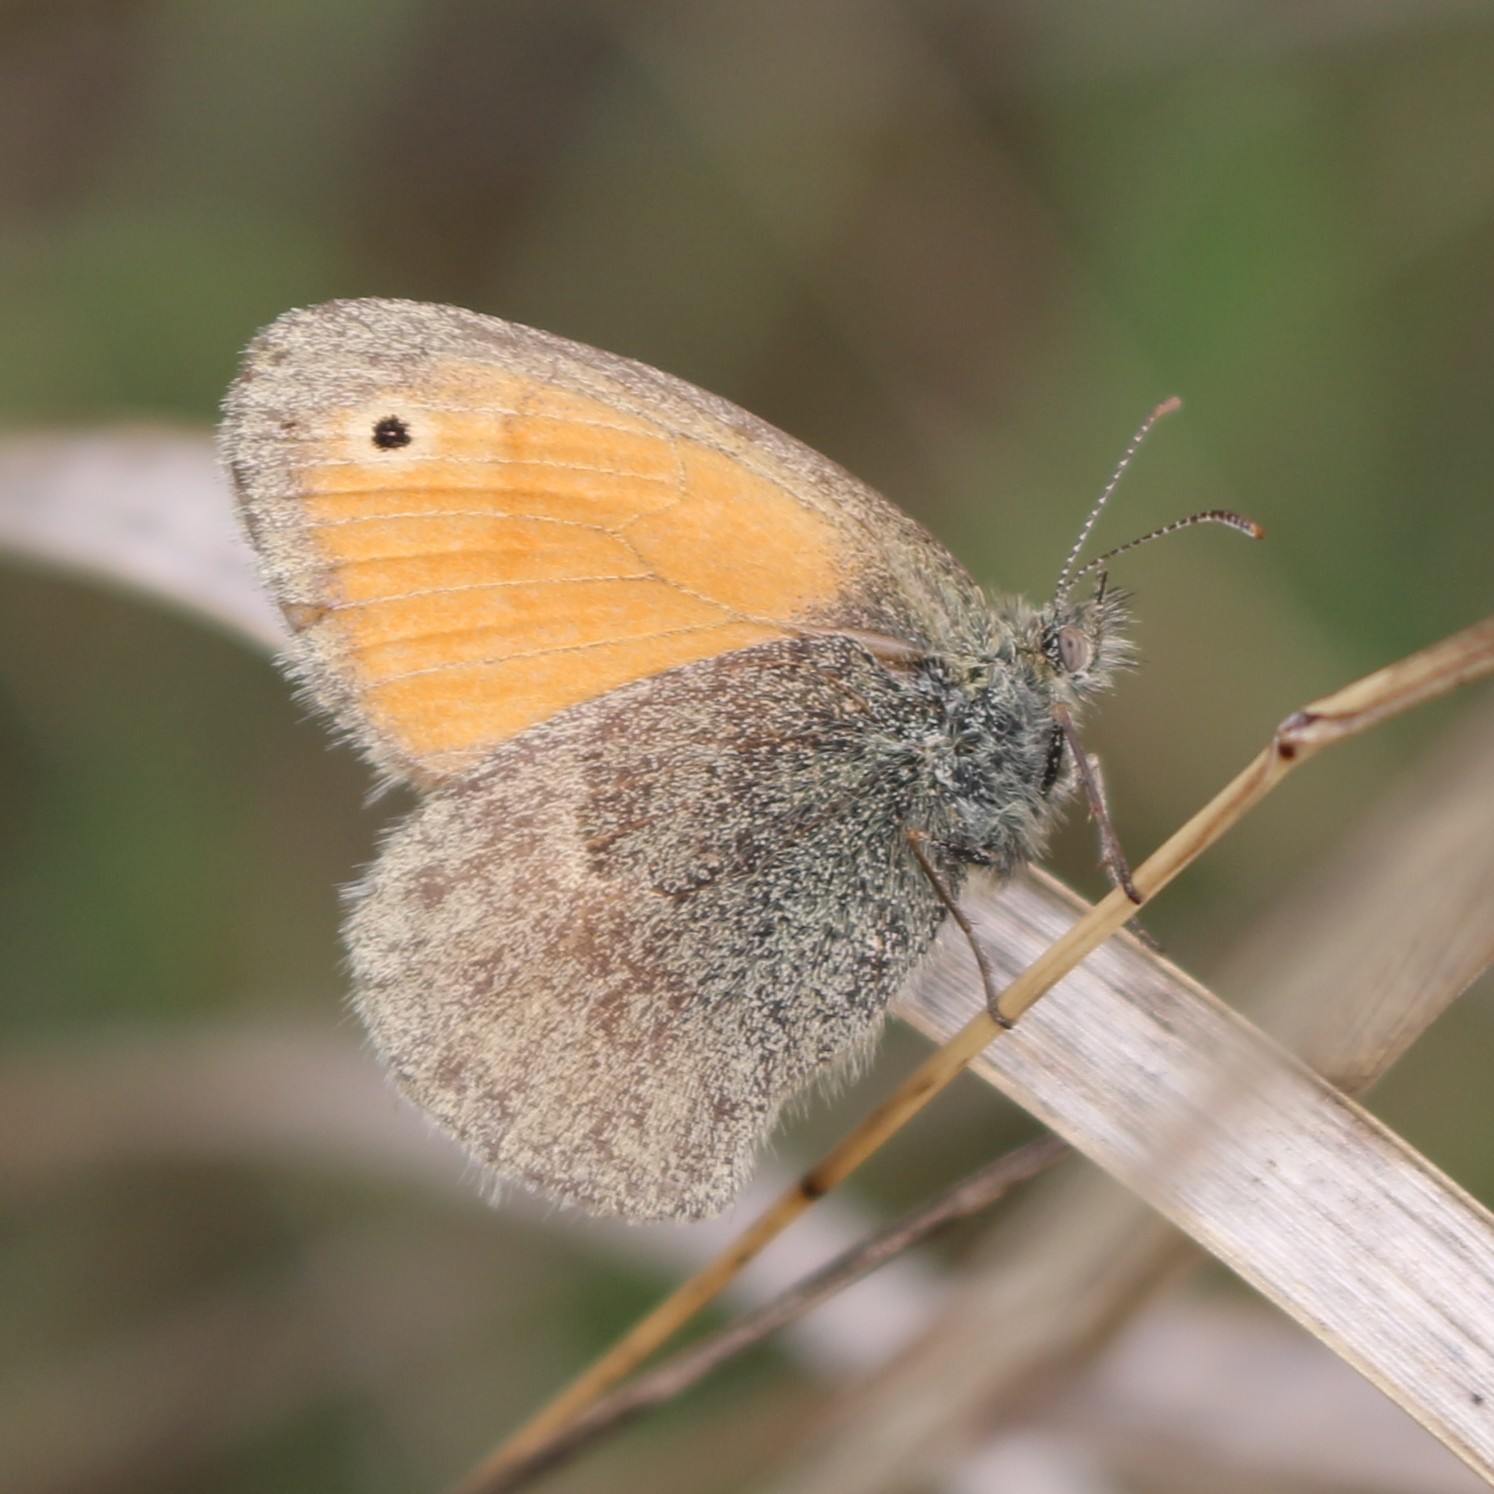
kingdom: Animalia
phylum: Arthropoda
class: Insecta
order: Lepidoptera
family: Nymphalidae
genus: Coenonympha
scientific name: Coenonympha pamphilus
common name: Small heath
